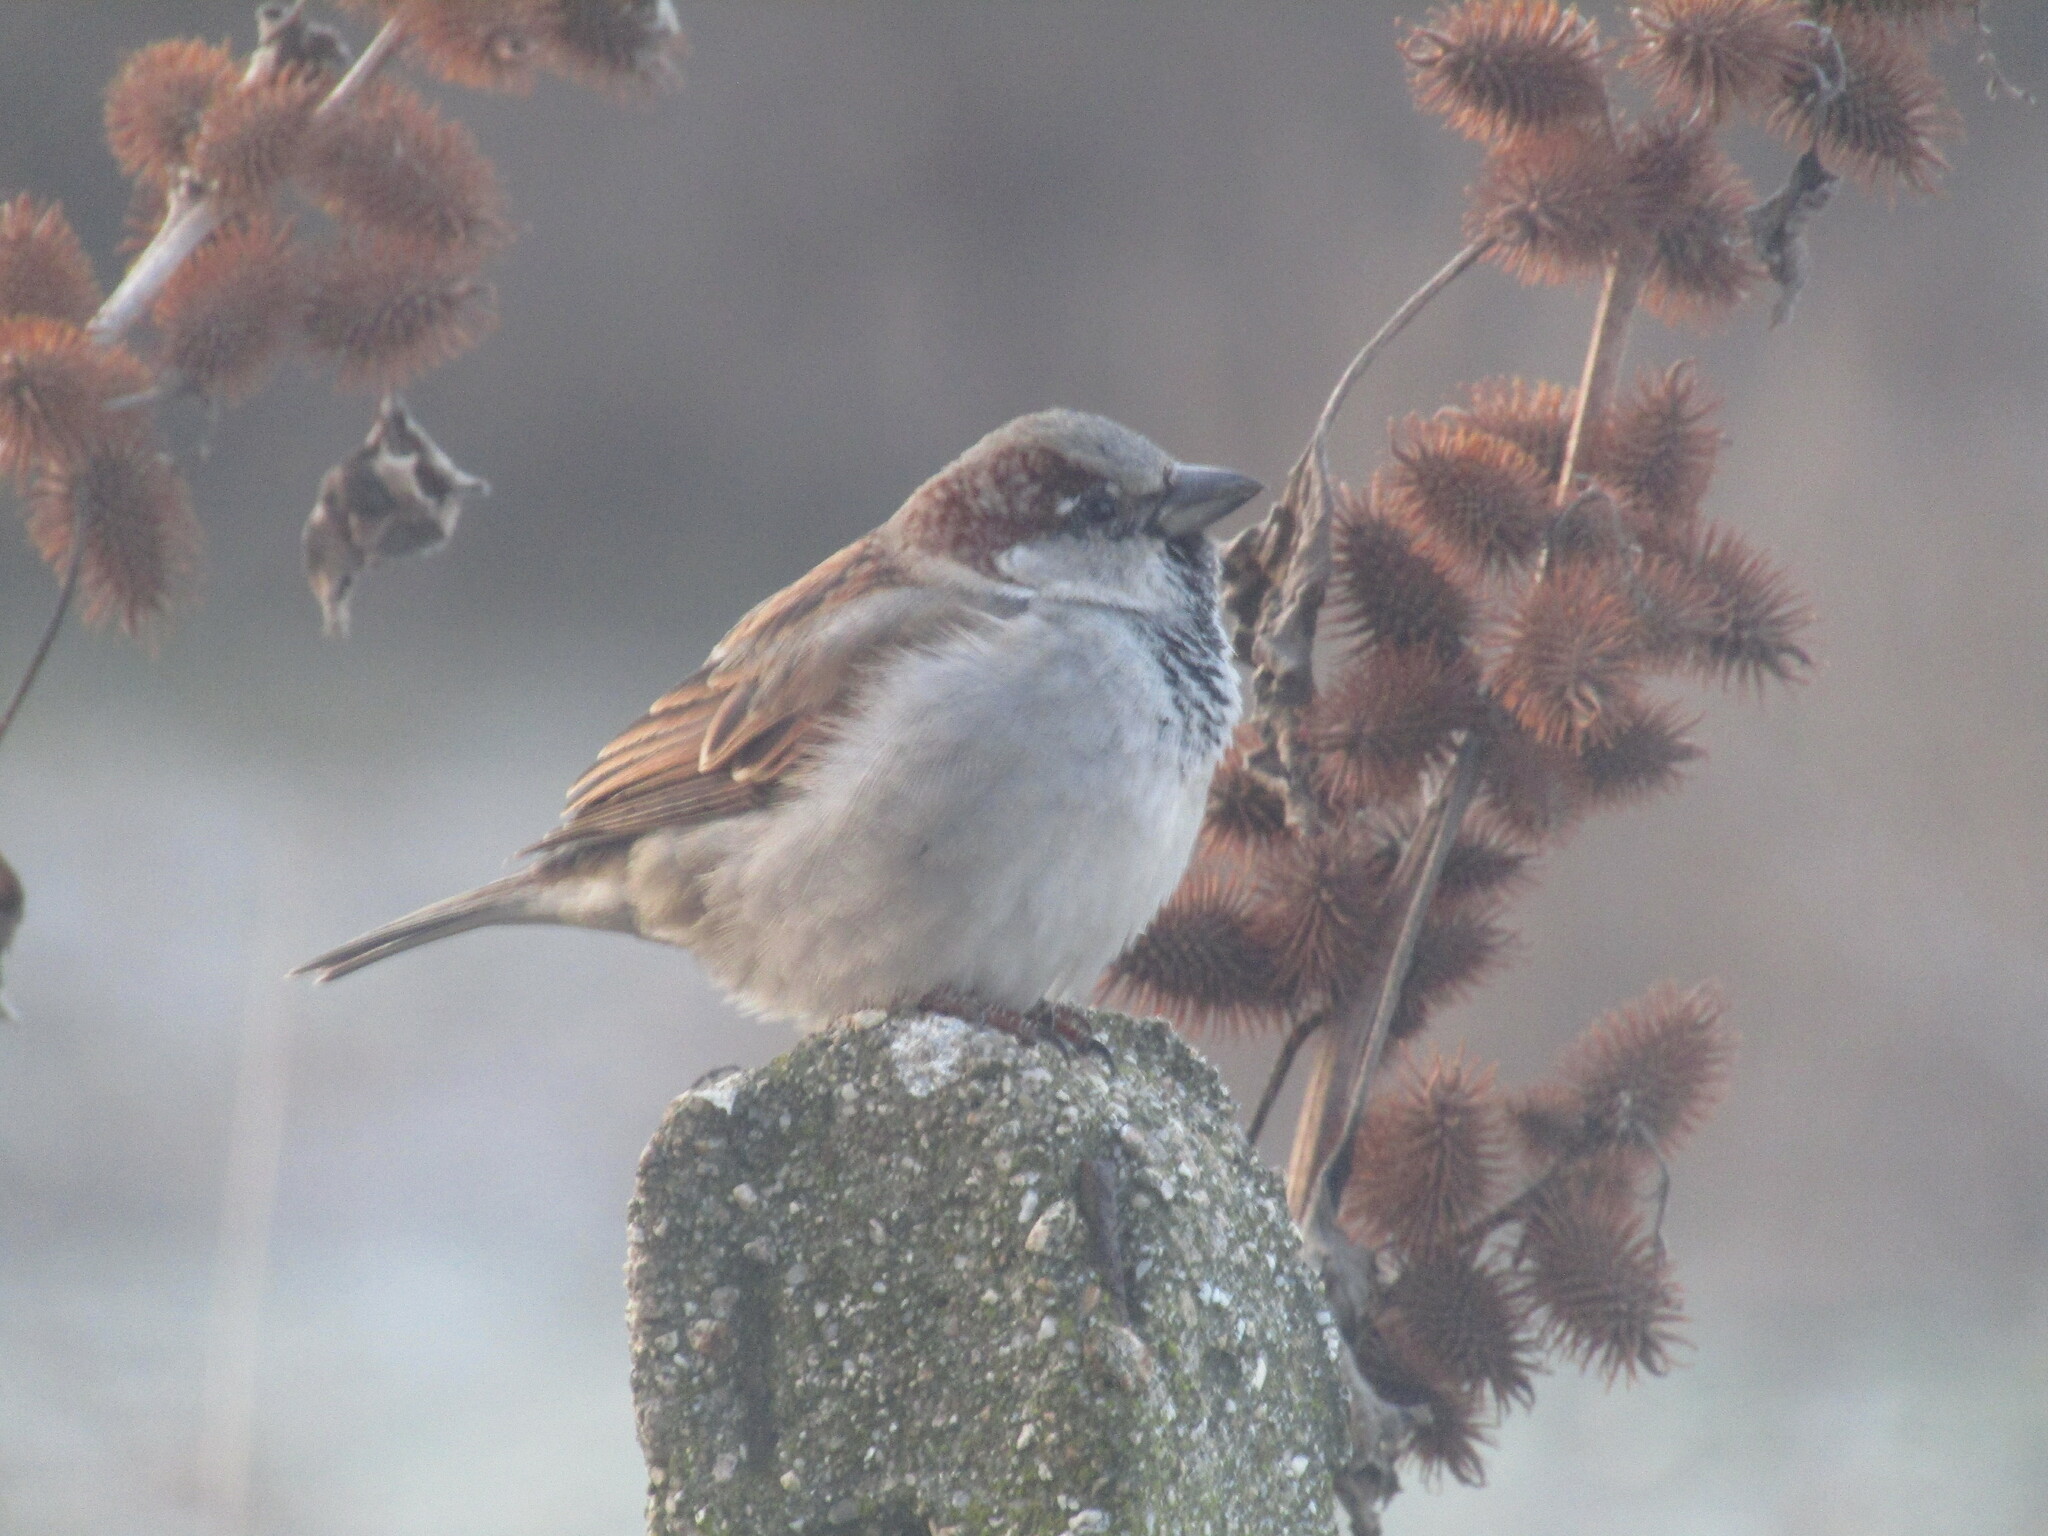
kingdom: Animalia
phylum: Chordata
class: Aves
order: Passeriformes
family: Passeridae
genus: Passer
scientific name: Passer domesticus
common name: House sparrow
